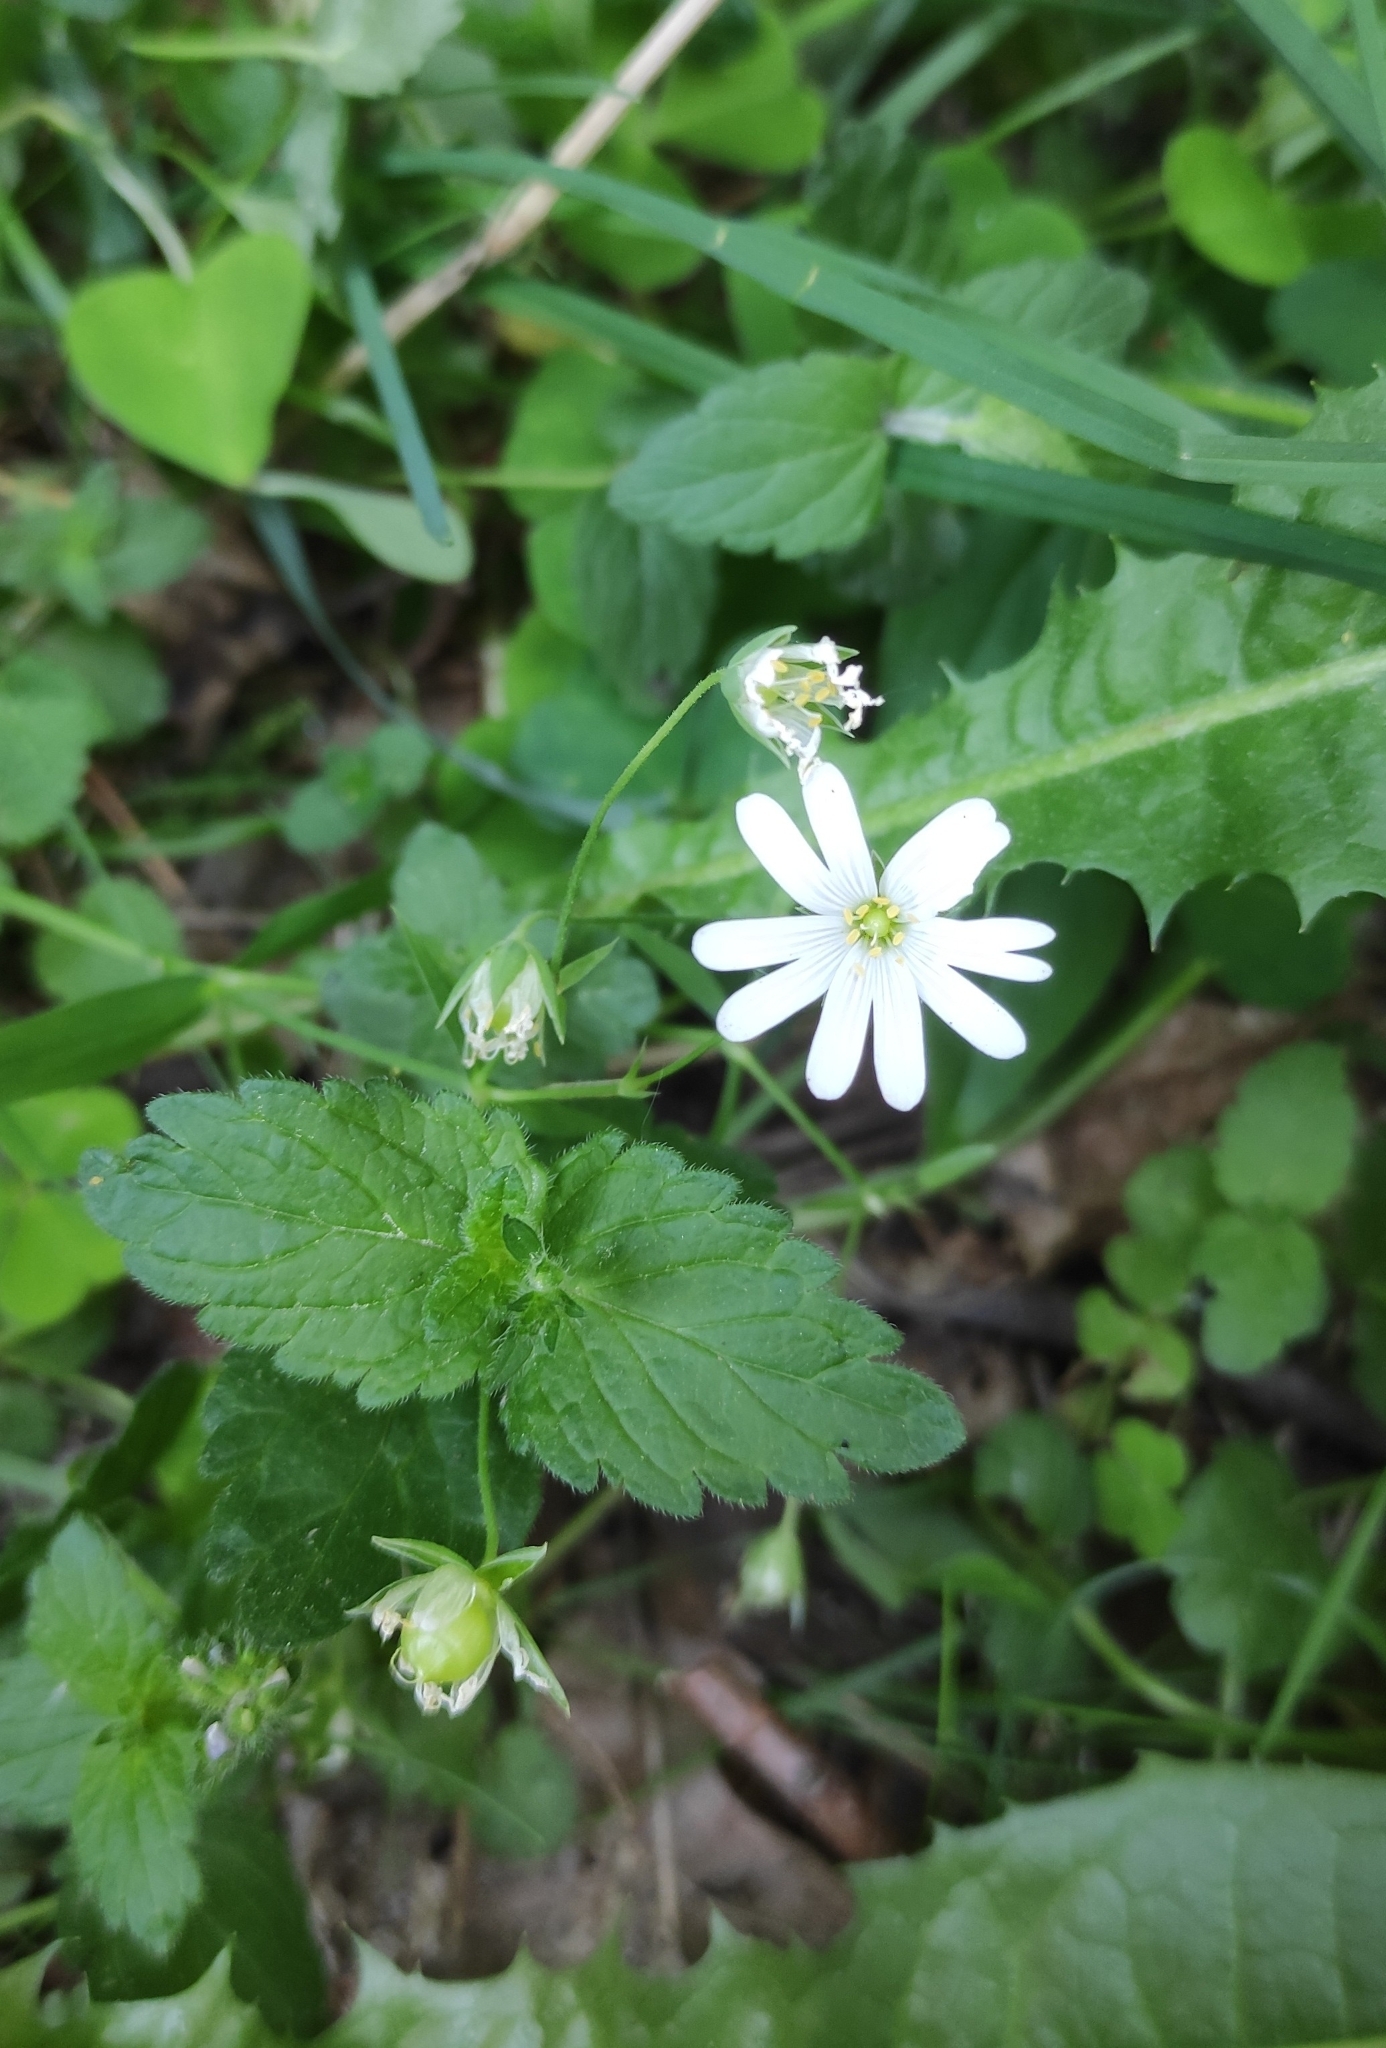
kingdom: Plantae
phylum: Tracheophyta
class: Magnoliopsida
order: Caryophyllales
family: Caryophyllaceae
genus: Rabelera
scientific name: Rabelera holostea
